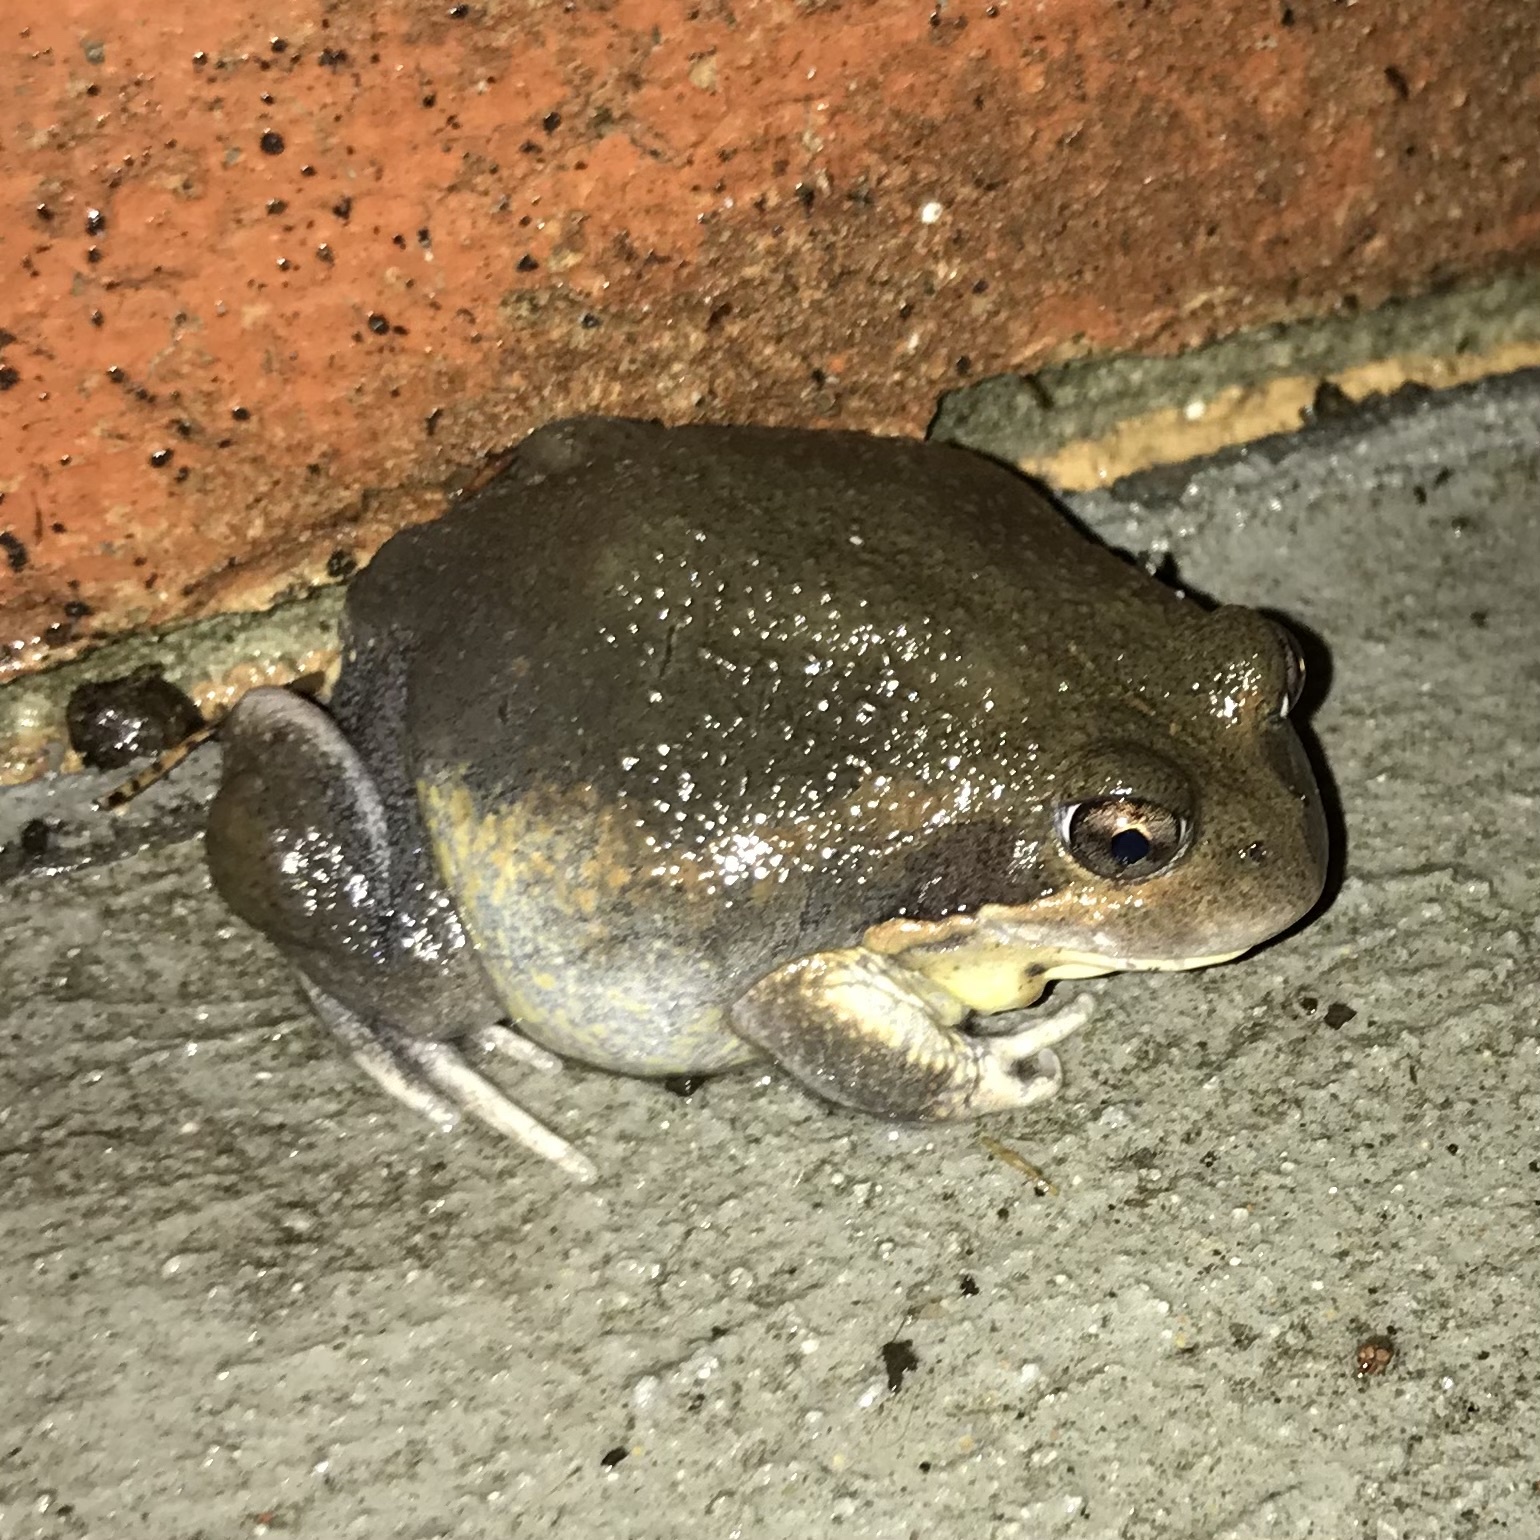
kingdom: Animalia
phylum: Chordata
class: Amphibia
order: Anura
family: Limnodynastidae
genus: Limnodynastes
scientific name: Limnodynastes dumerilii
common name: Banjo frog
